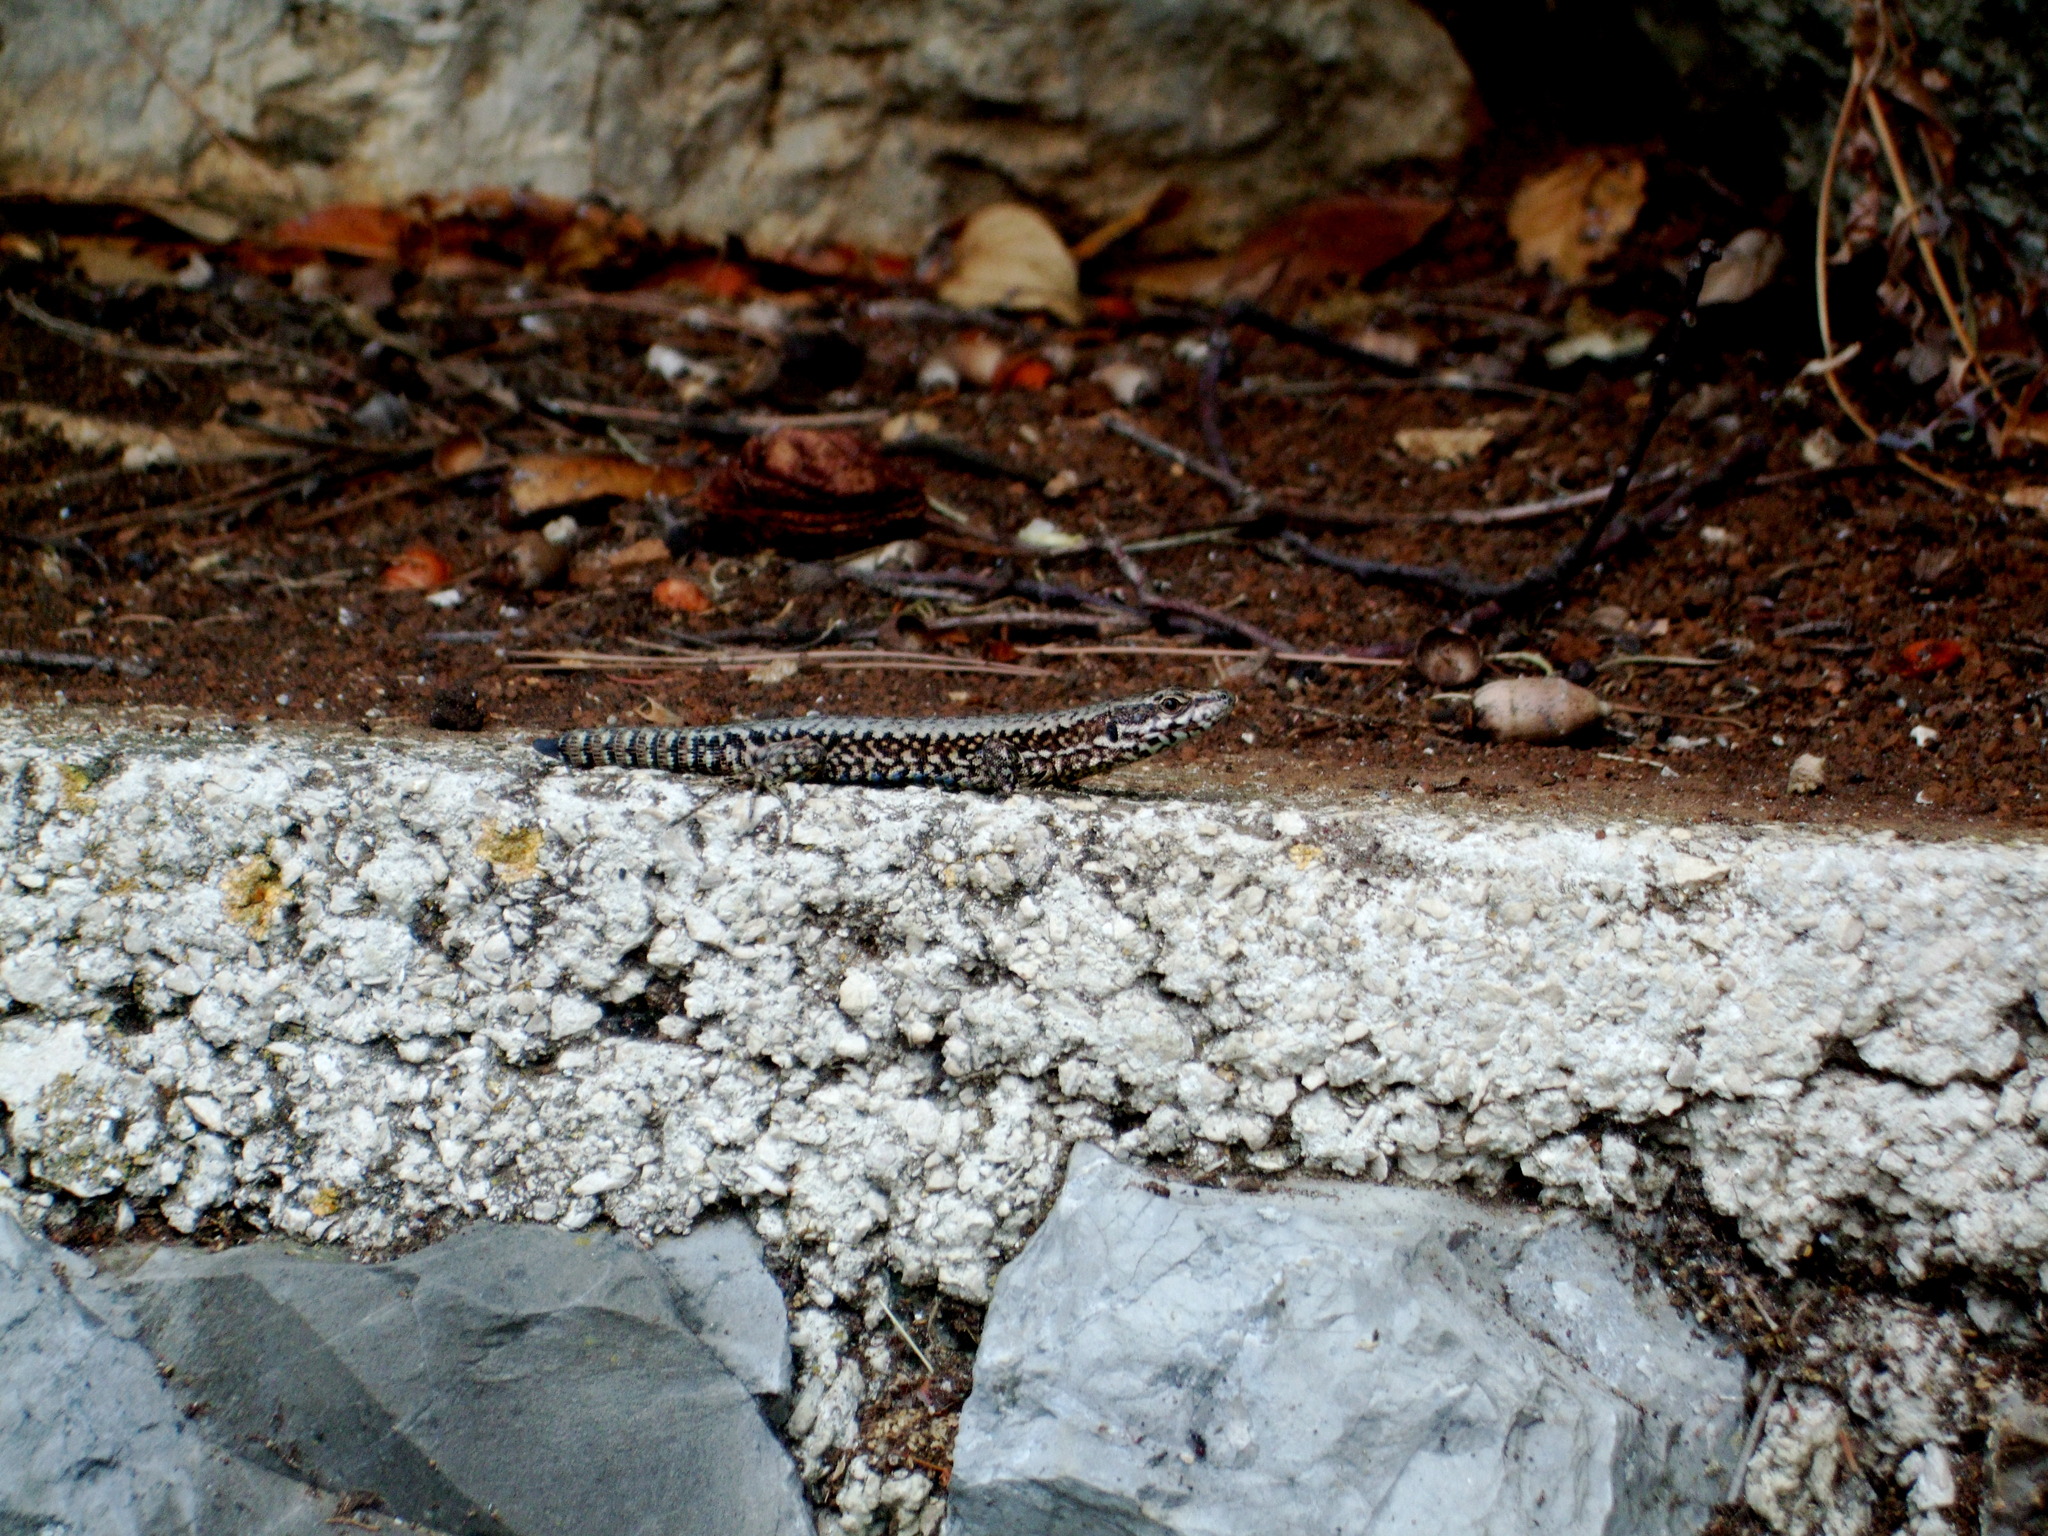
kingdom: Animalia
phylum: Chordata
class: Squamata
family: Lacertidae
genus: Podarcis
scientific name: Podarcis muralis
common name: Common wall lizard
